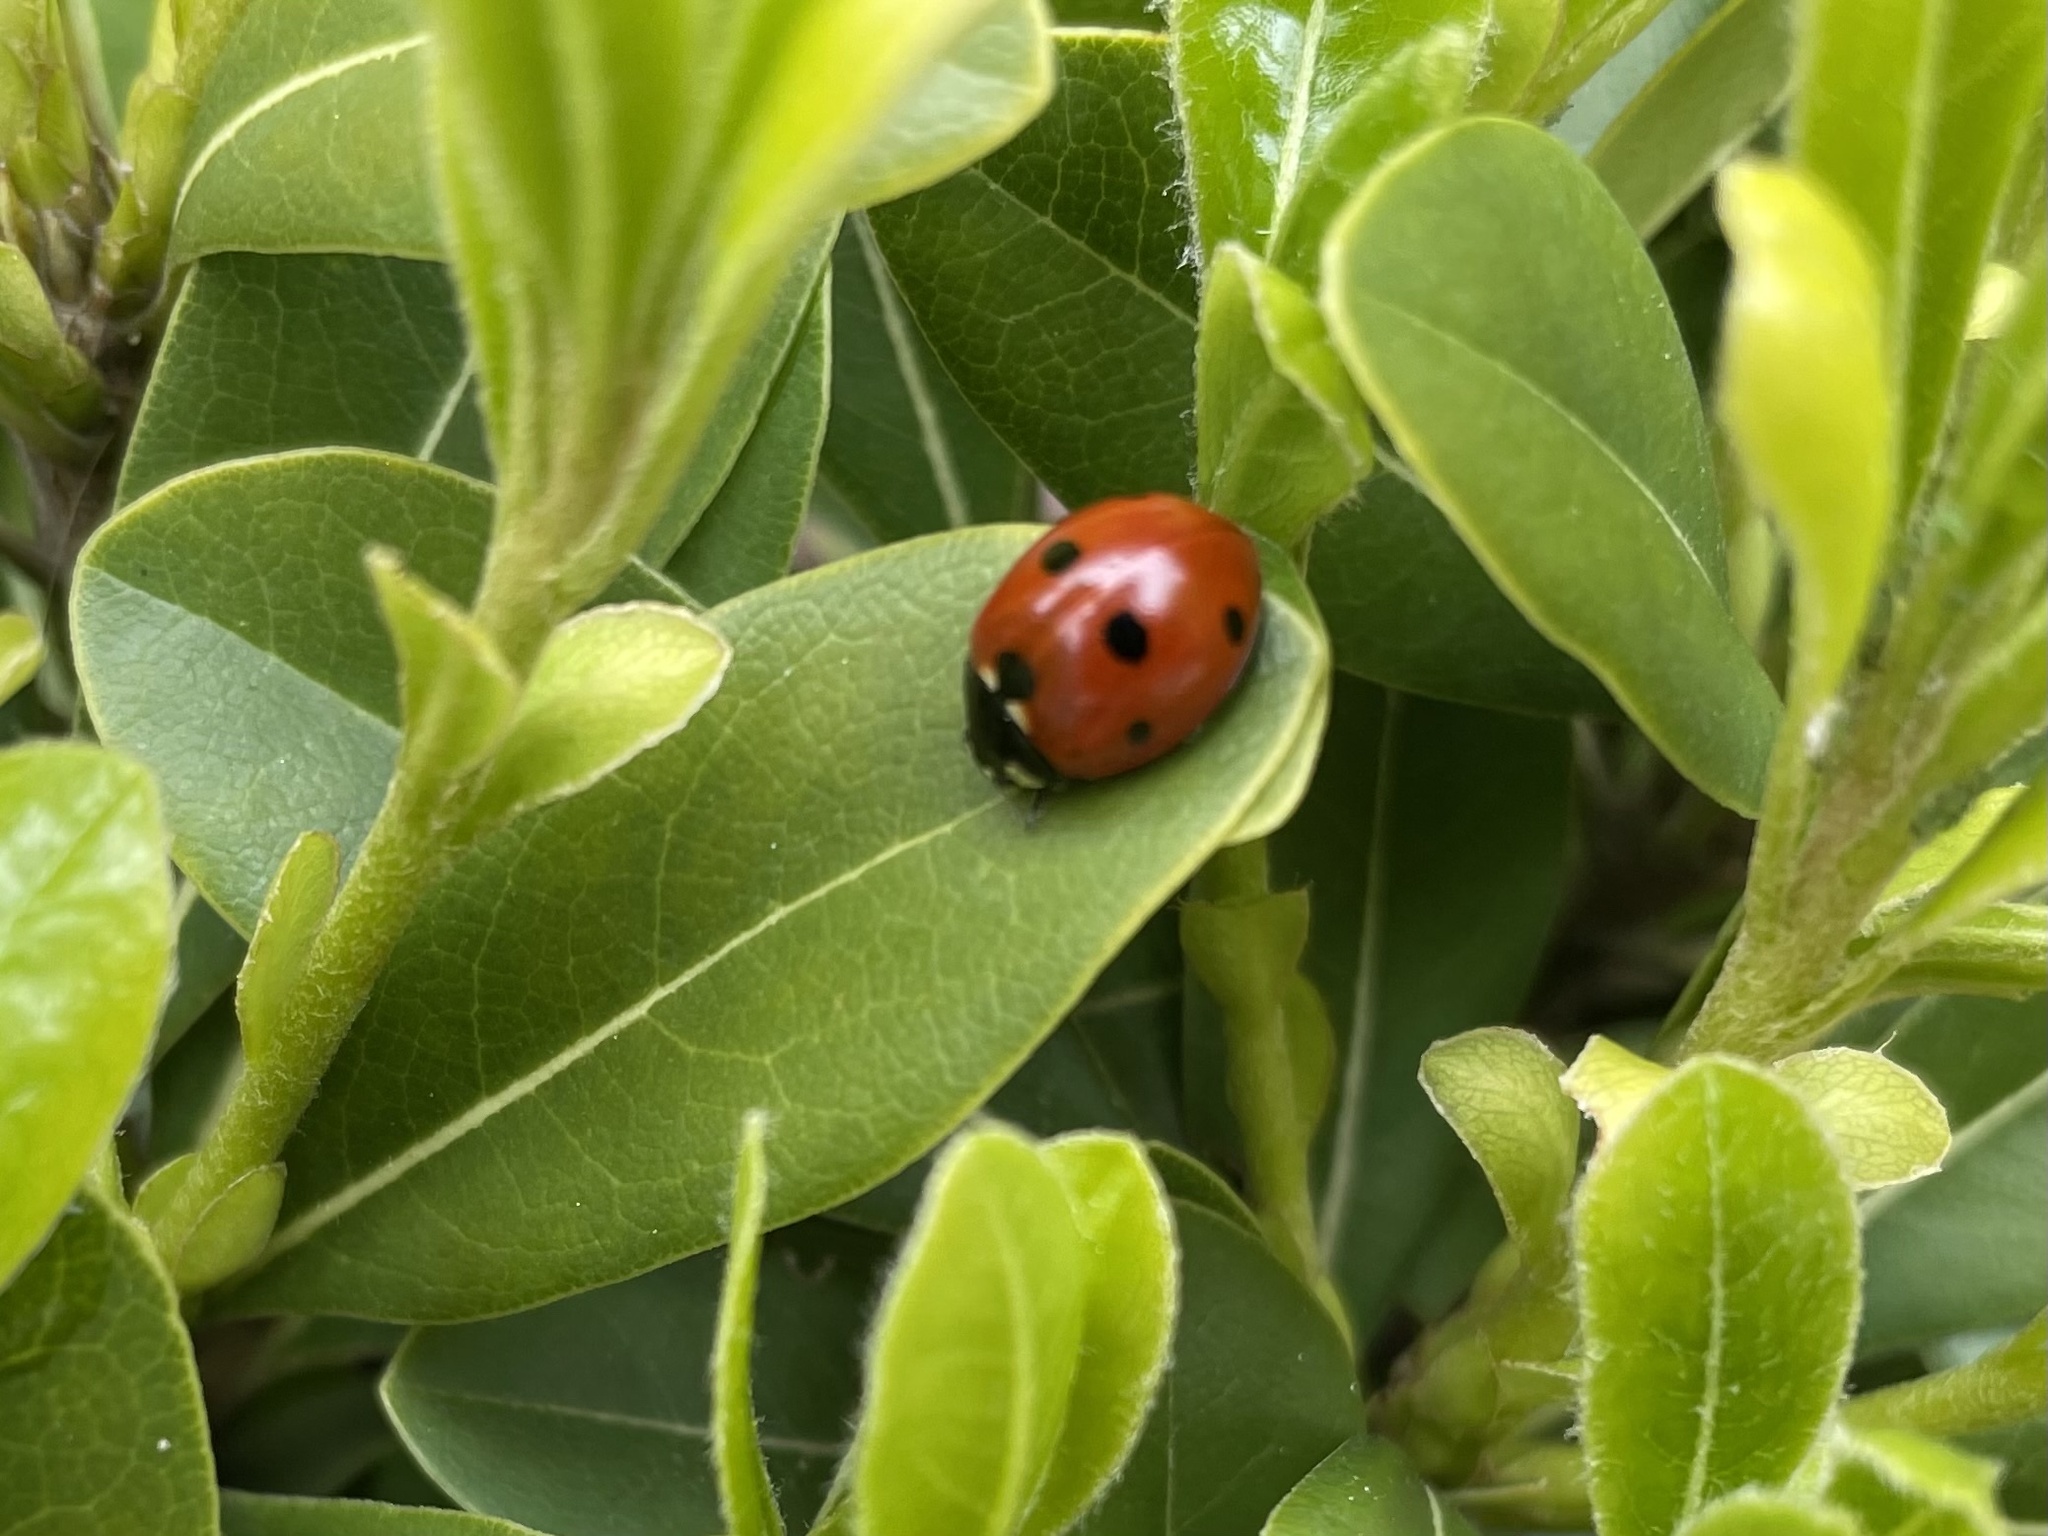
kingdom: Animalia
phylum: Arthropoda
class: Insecta
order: Coleoptera
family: Coccinellidae
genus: Coccinella
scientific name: Coccinella septempunctata
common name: Sevenspotted lady beetle
